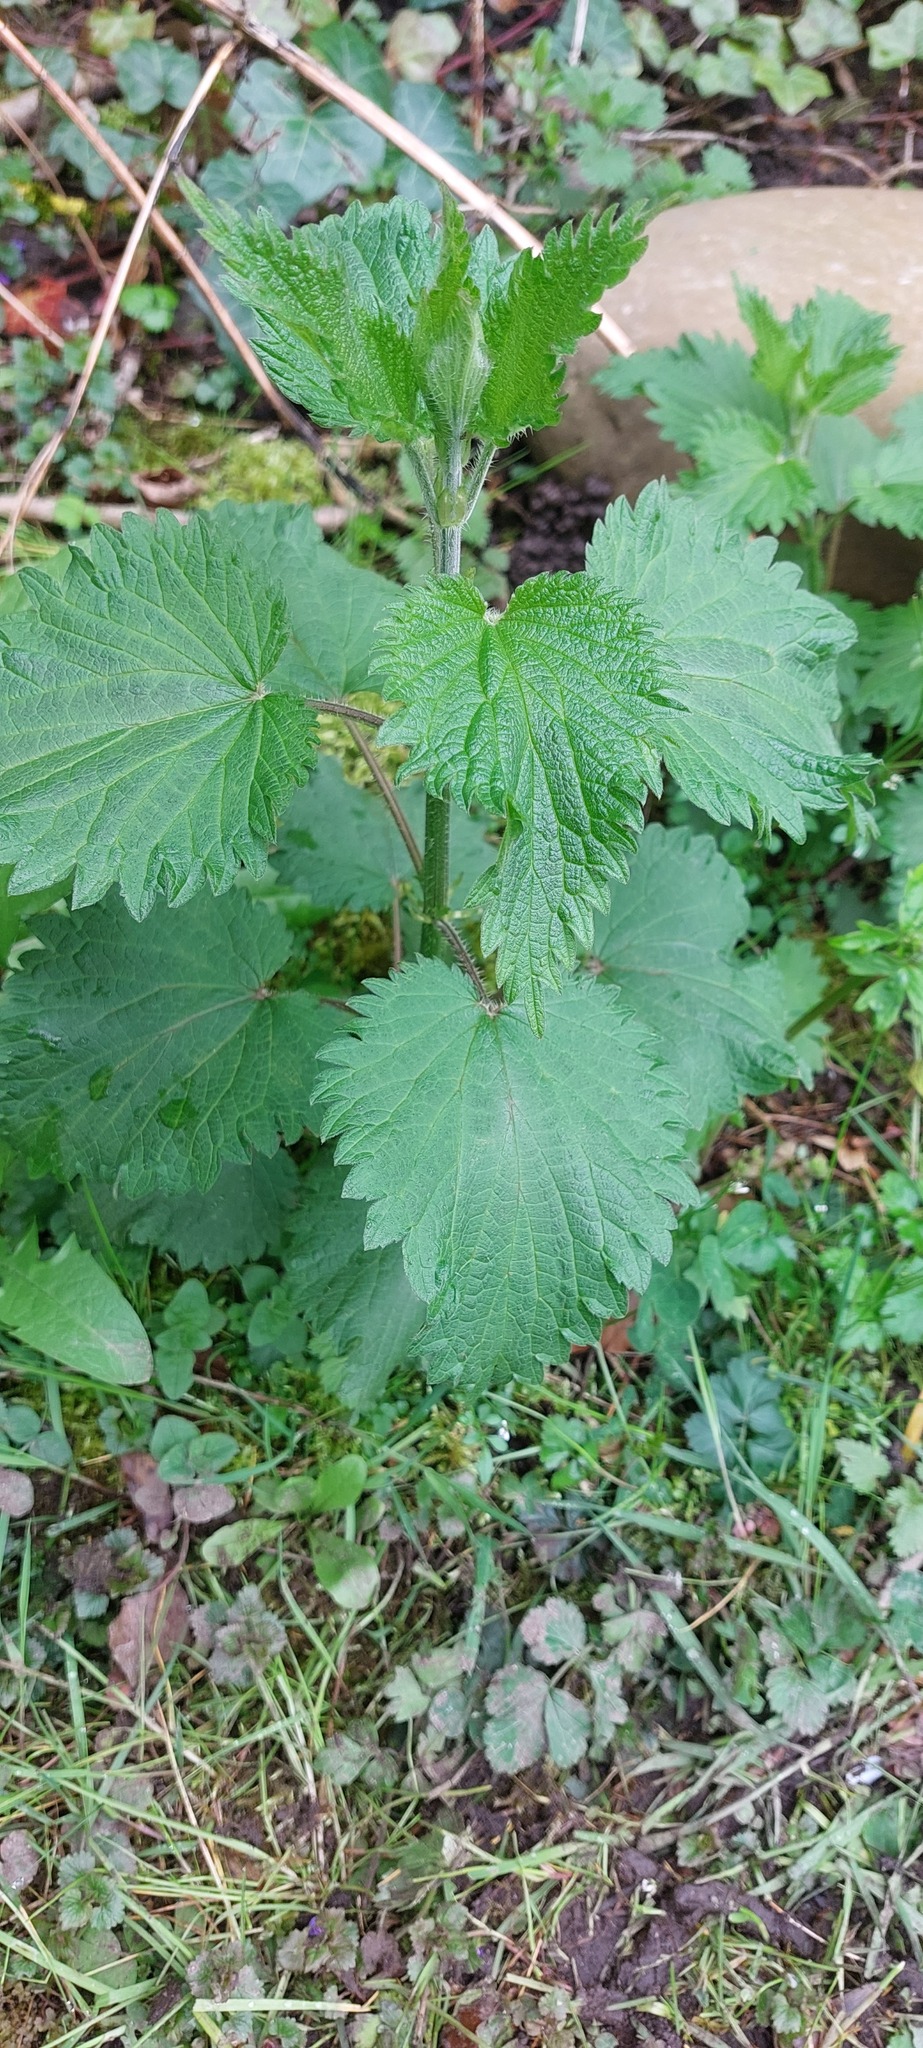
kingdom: Plantae
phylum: Tracheophyta
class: Magnoliopsida
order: Rosales
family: Urticaceae
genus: Urtica
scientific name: Urtica dioica
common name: Common nettle
